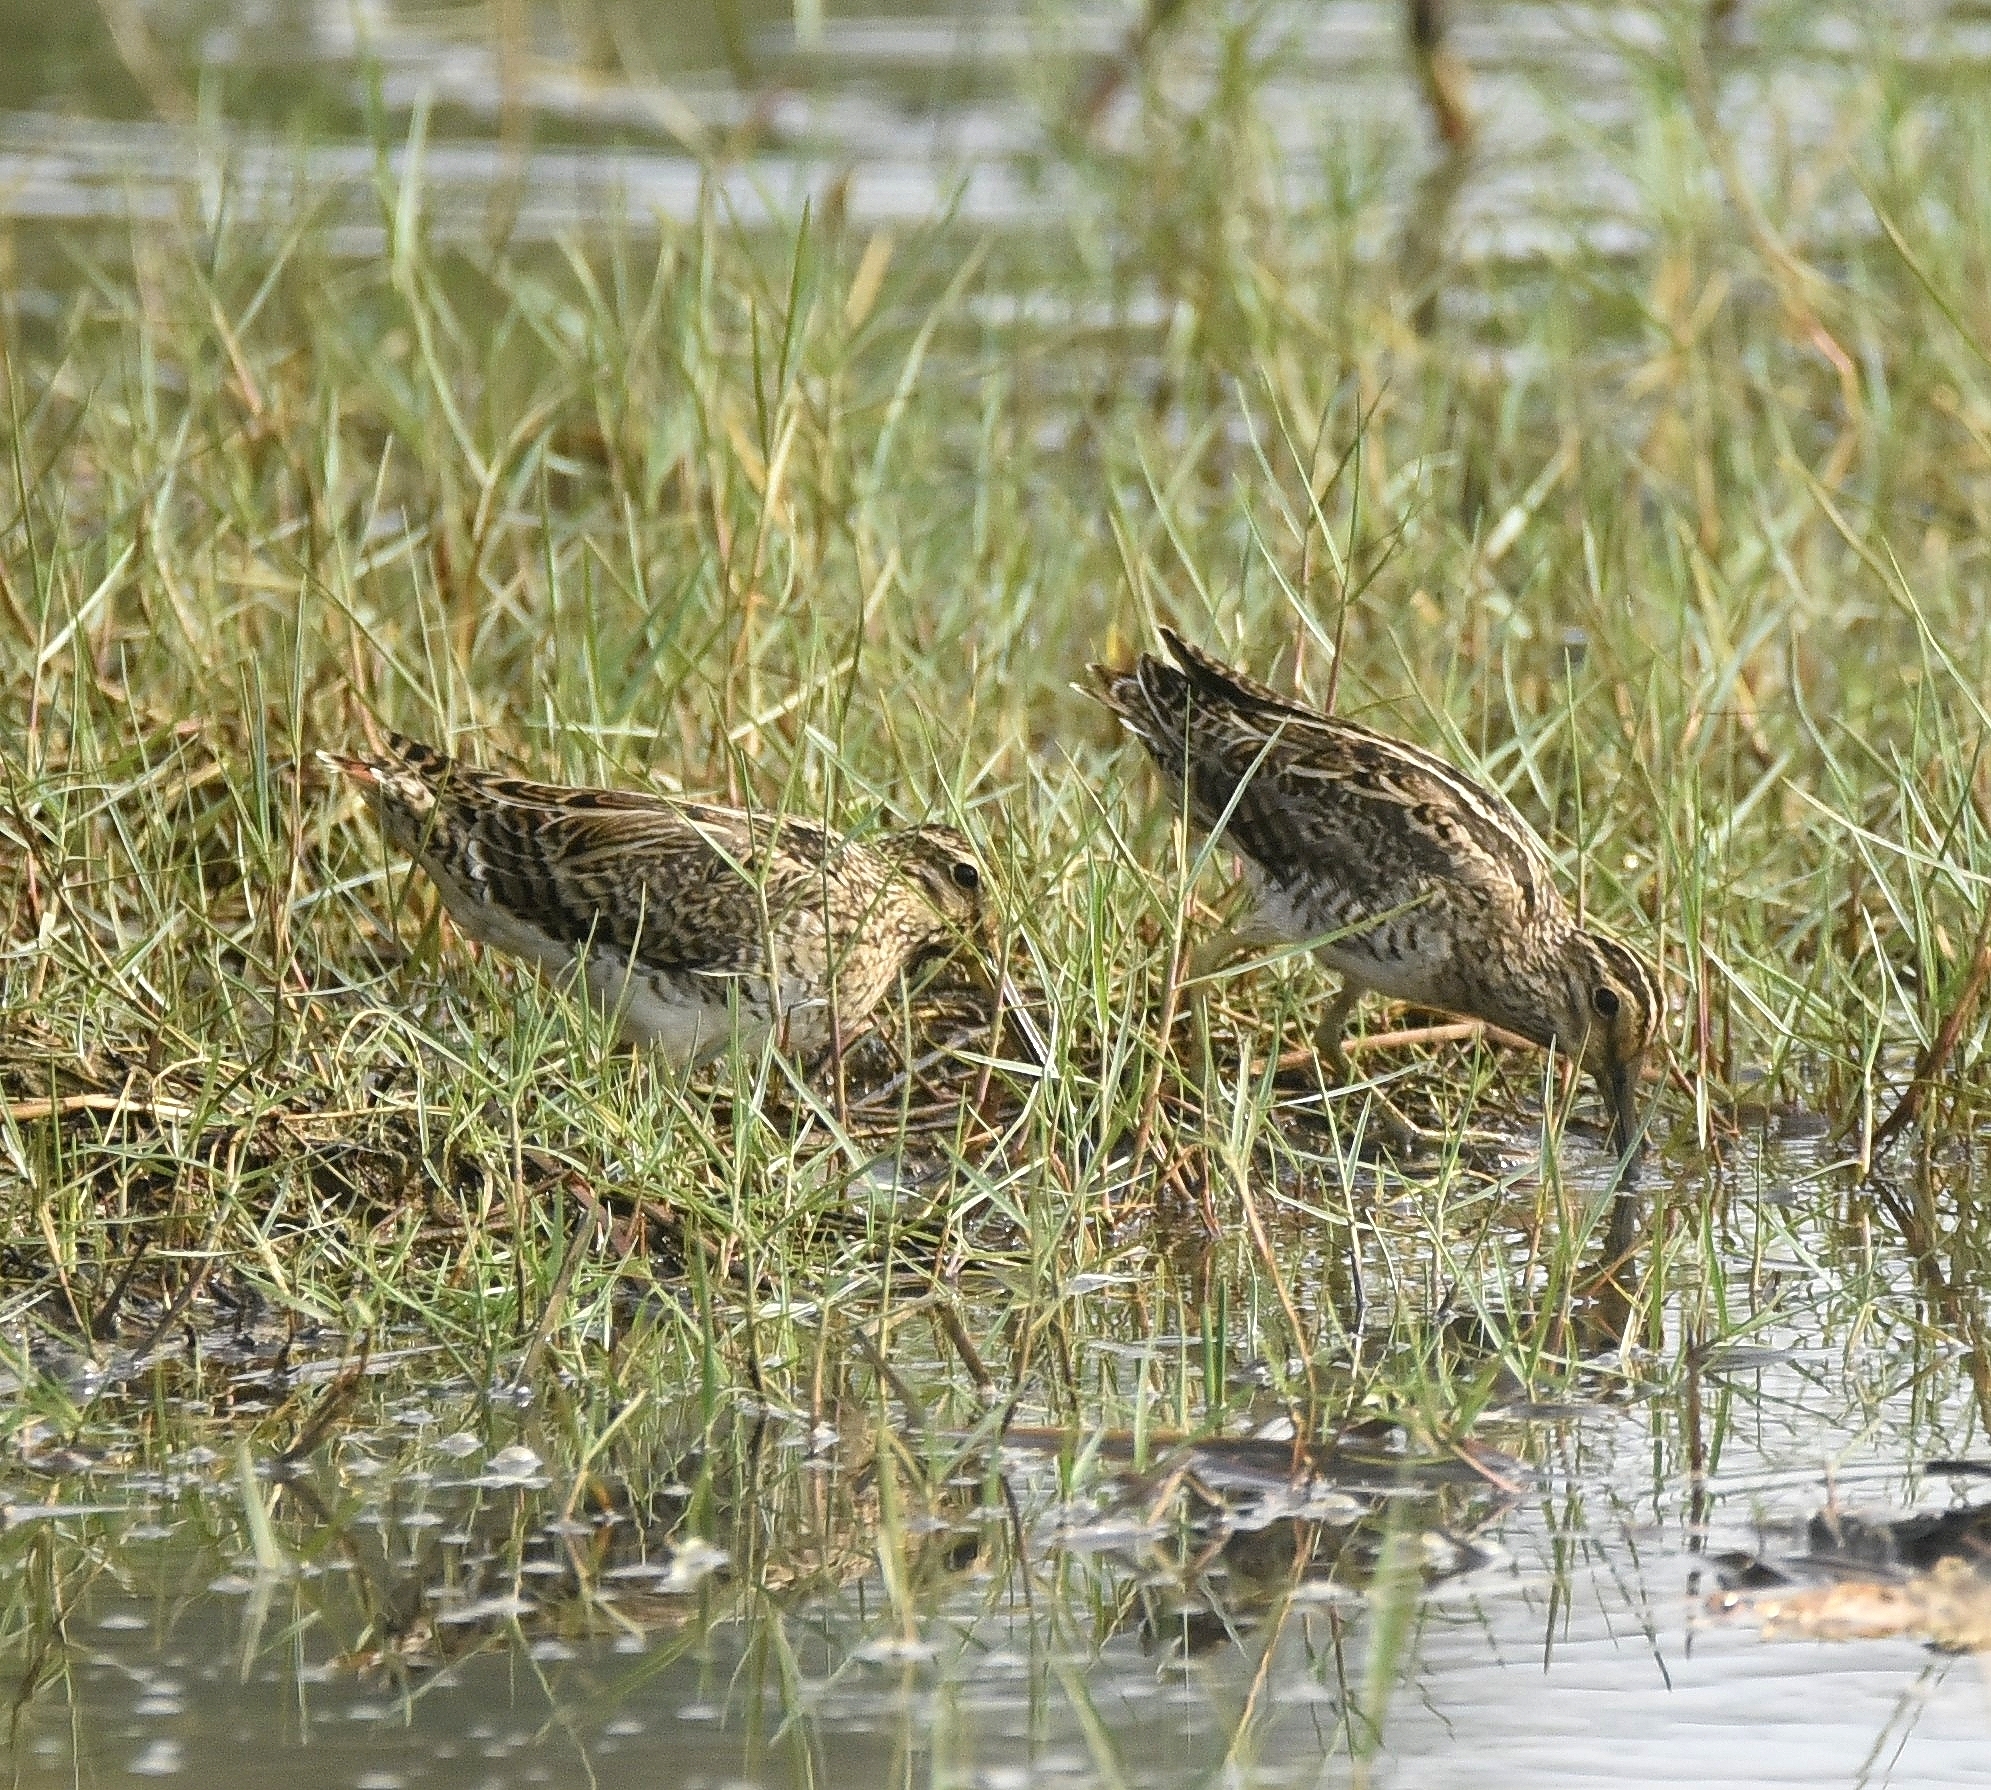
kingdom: Animalia
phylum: Chordata
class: Aves
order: Charadriiformes
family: Scolopacidae
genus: Gallinago
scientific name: Gallinago gallinago
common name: Common snipe
